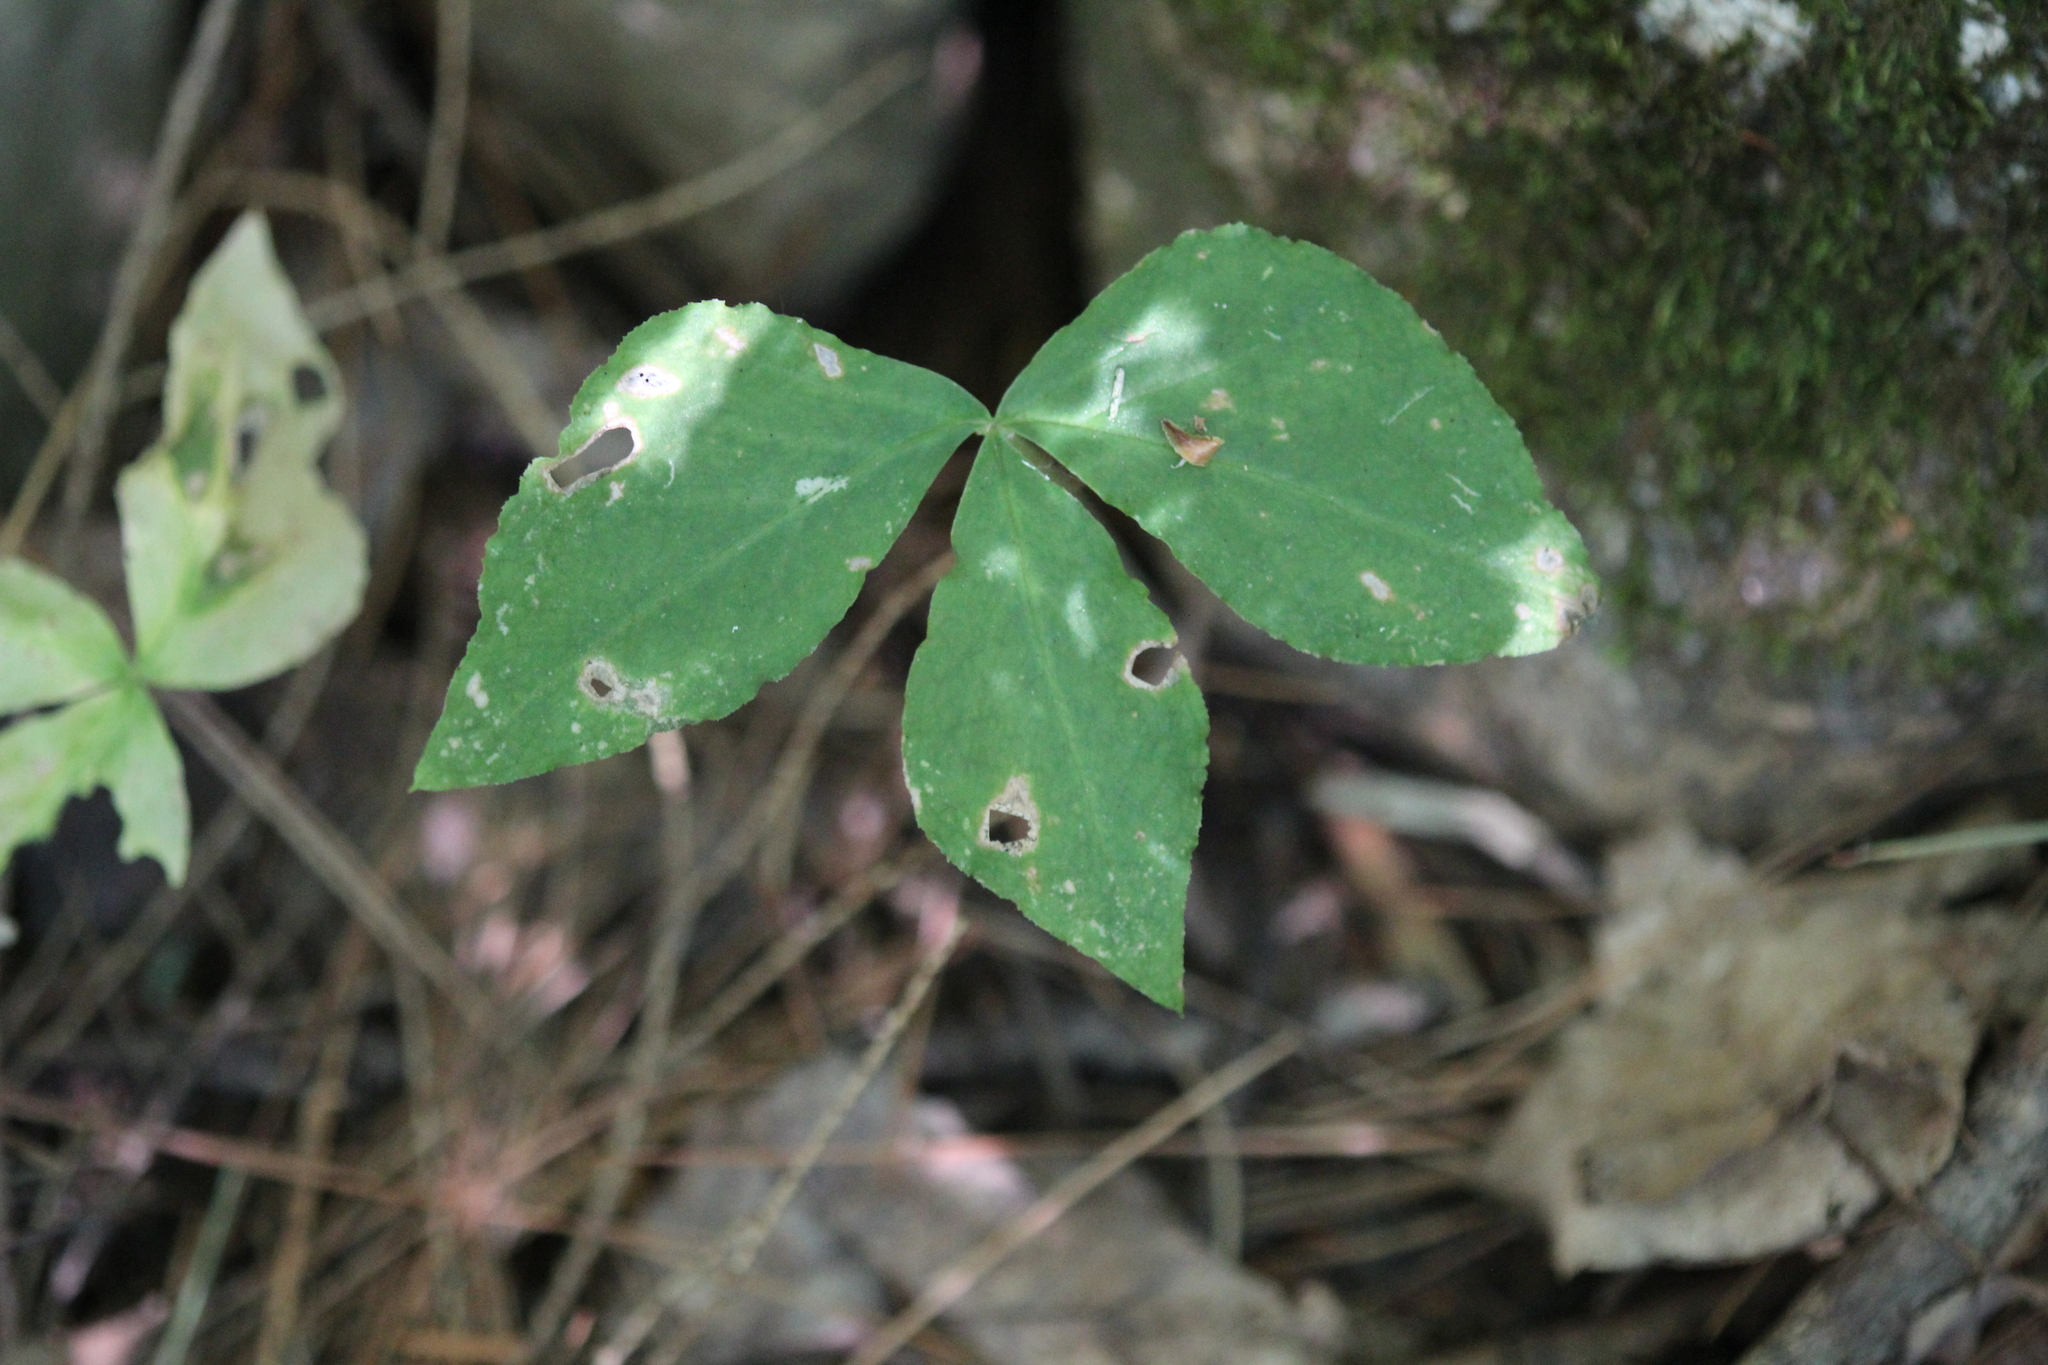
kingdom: Plantae
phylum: Tracheophyta
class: Liliopsida
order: Alismatales
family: Araceae
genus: Arisaema
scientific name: Arisaema triphyllum
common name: Jack-in-the-pulpit
